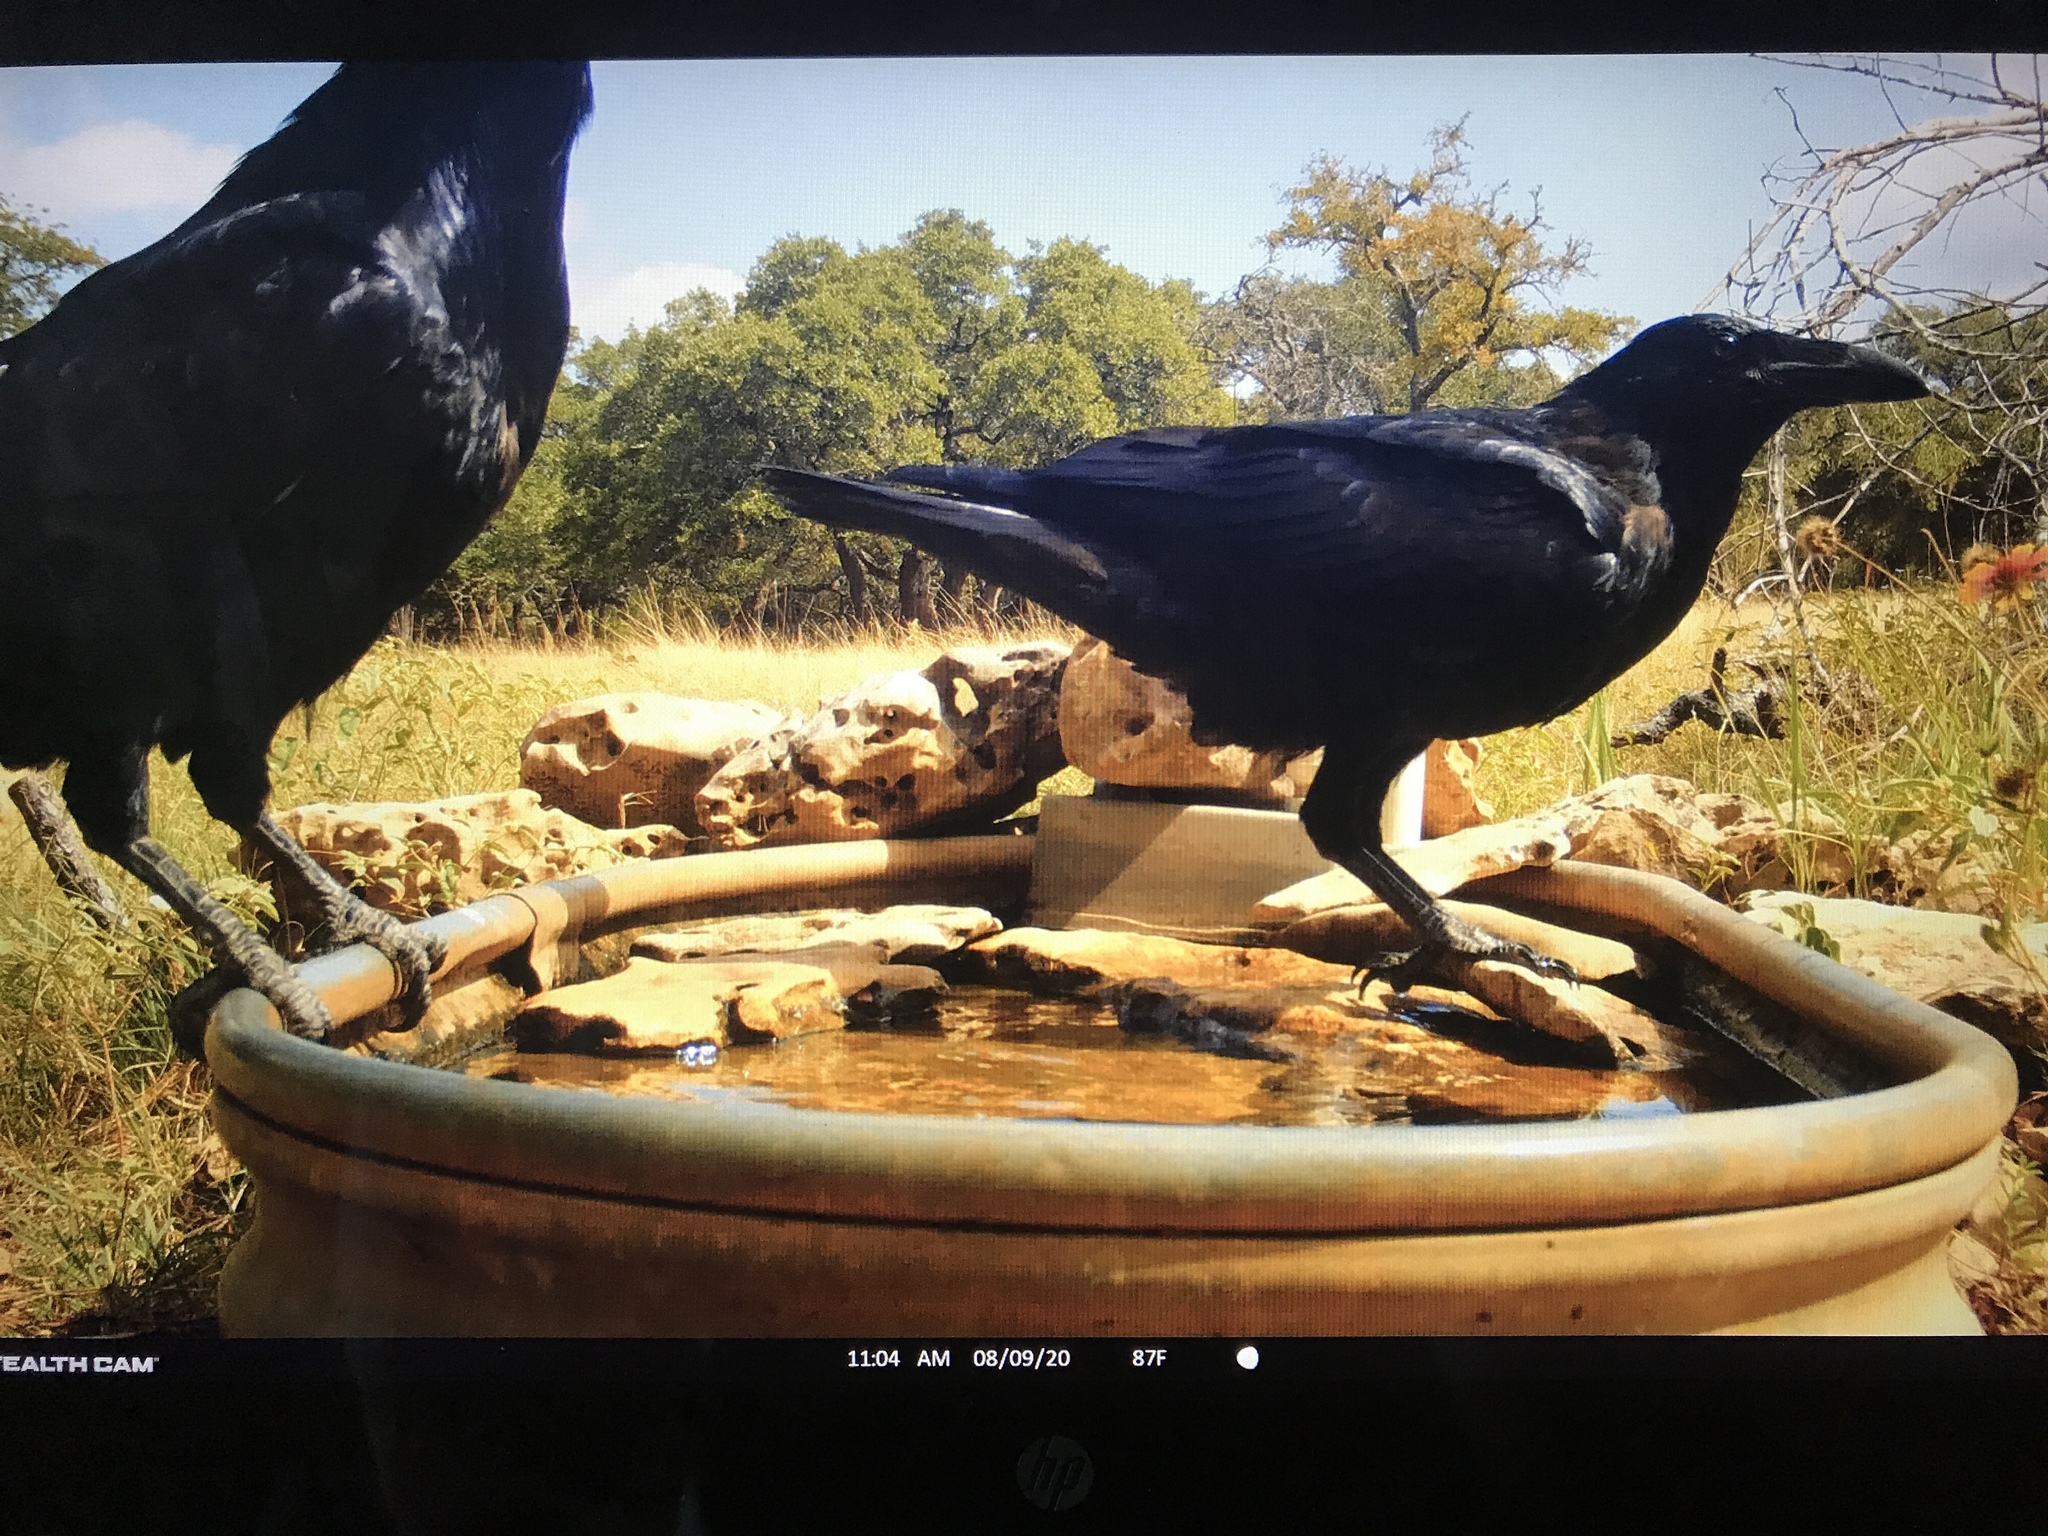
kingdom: Animalia
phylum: Chordata
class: Aves
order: Passeriformes
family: Corvidae
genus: Corvus
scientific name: Corvus corax
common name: Common raven
